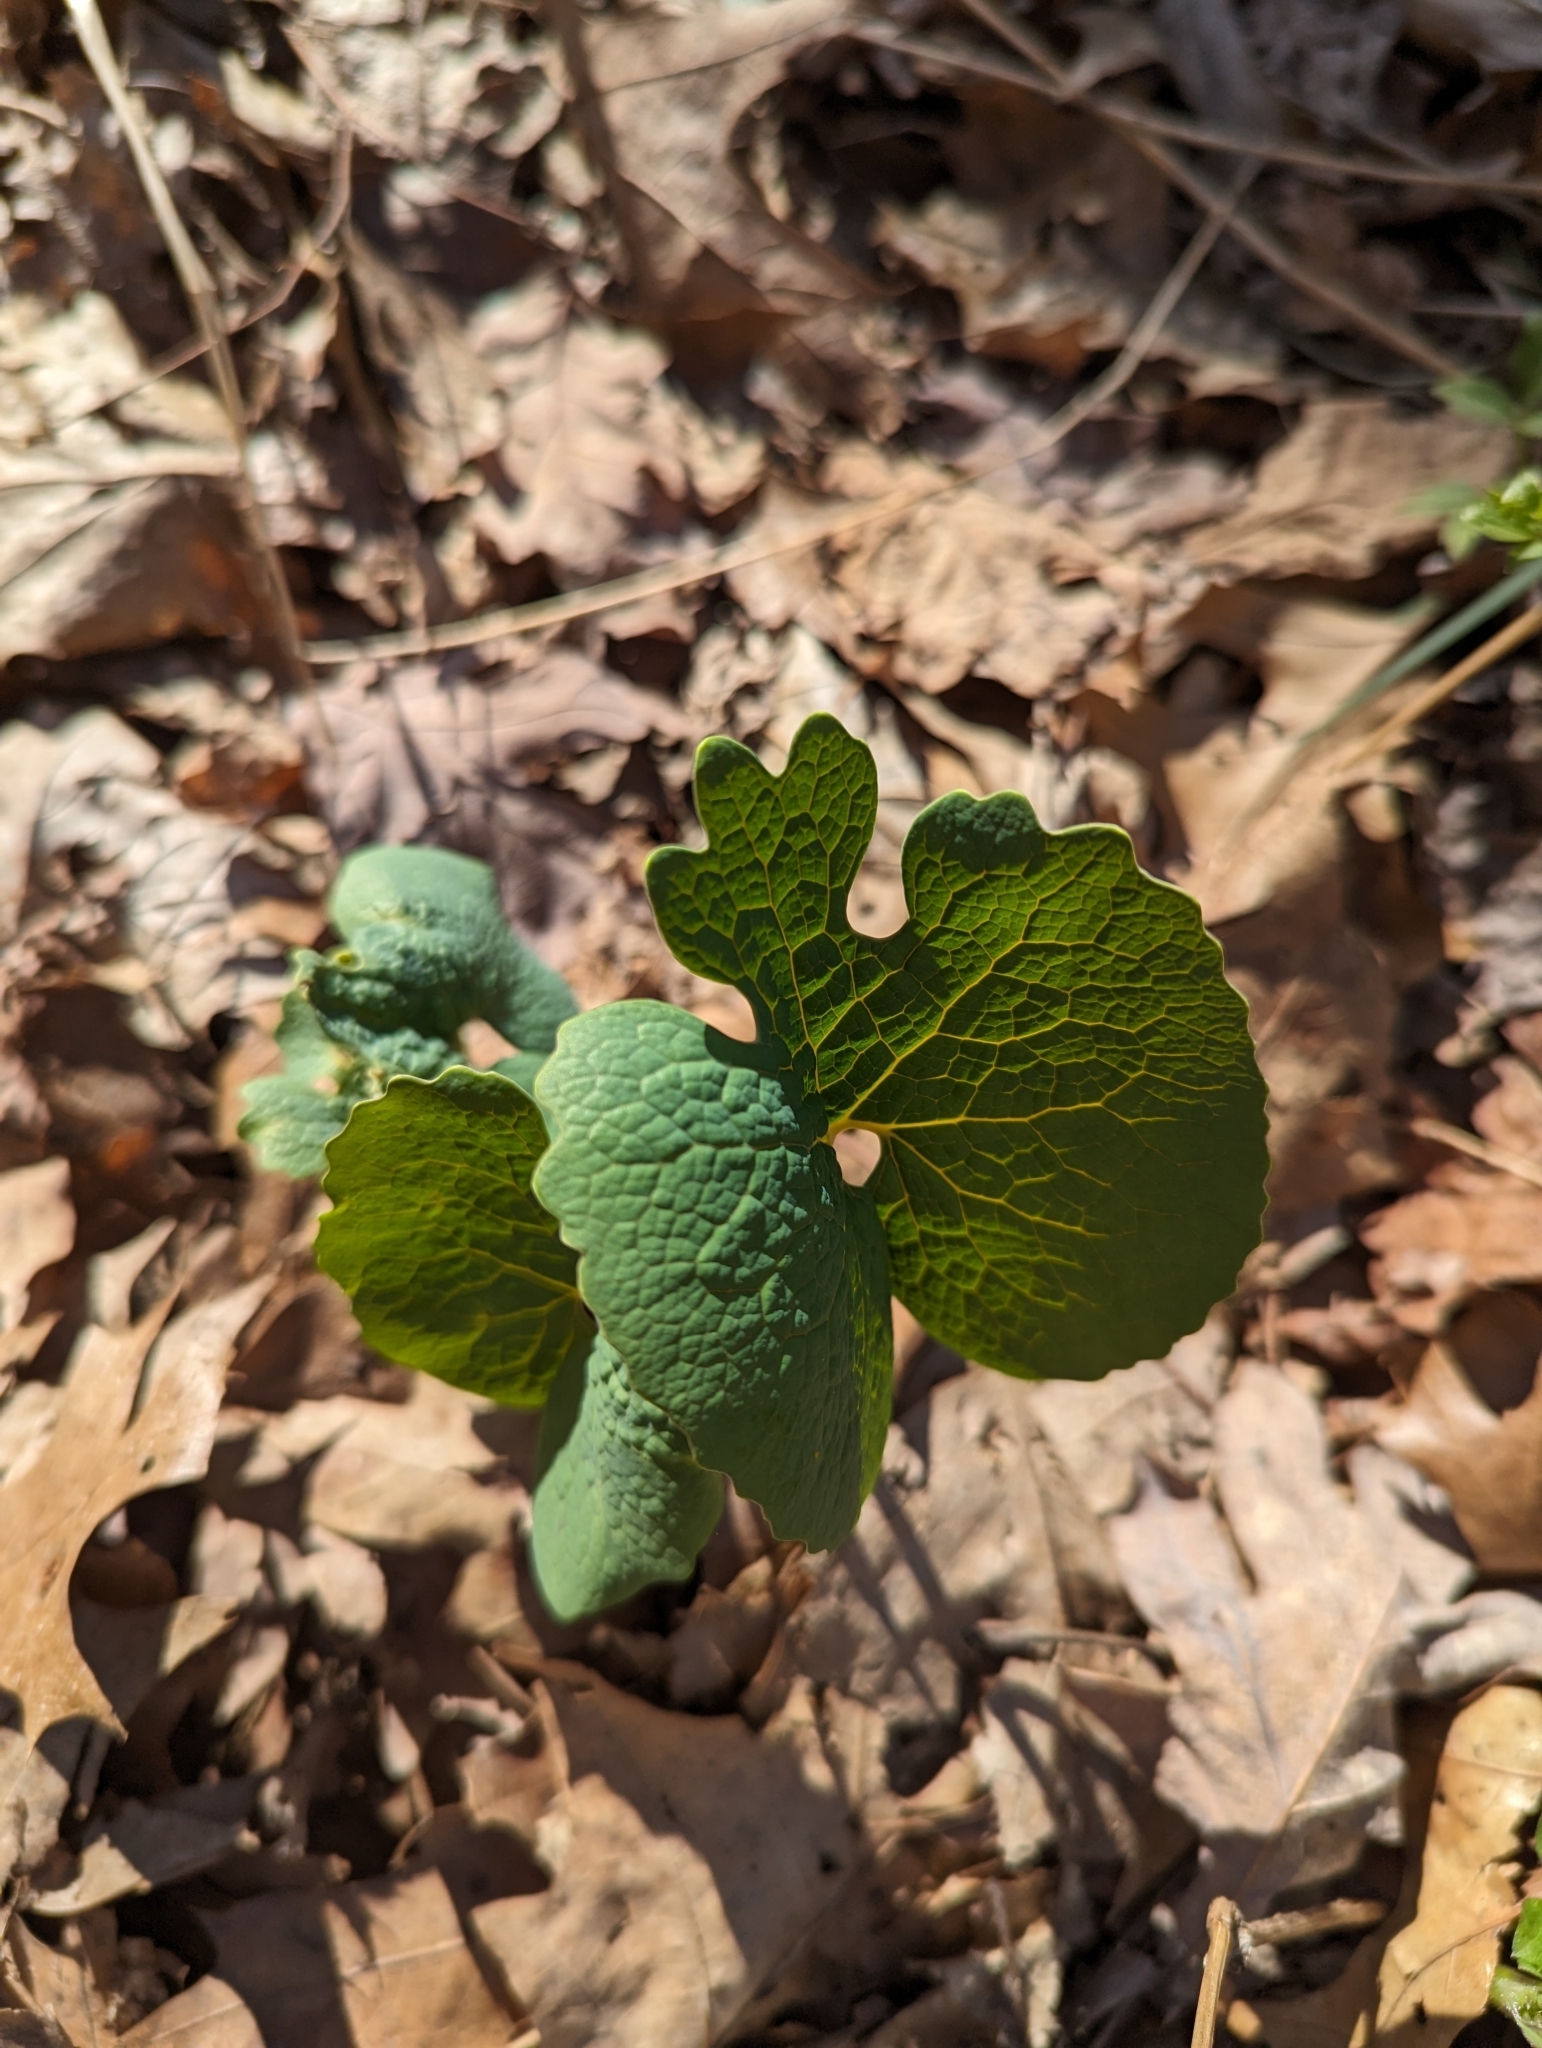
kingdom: Plantae
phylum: Tracheophyta
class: Magnoliopsida
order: Ranunculales
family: Papaveraceae
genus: Sanguinaria
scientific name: Sanguinaria canadensis
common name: Bloodroot
